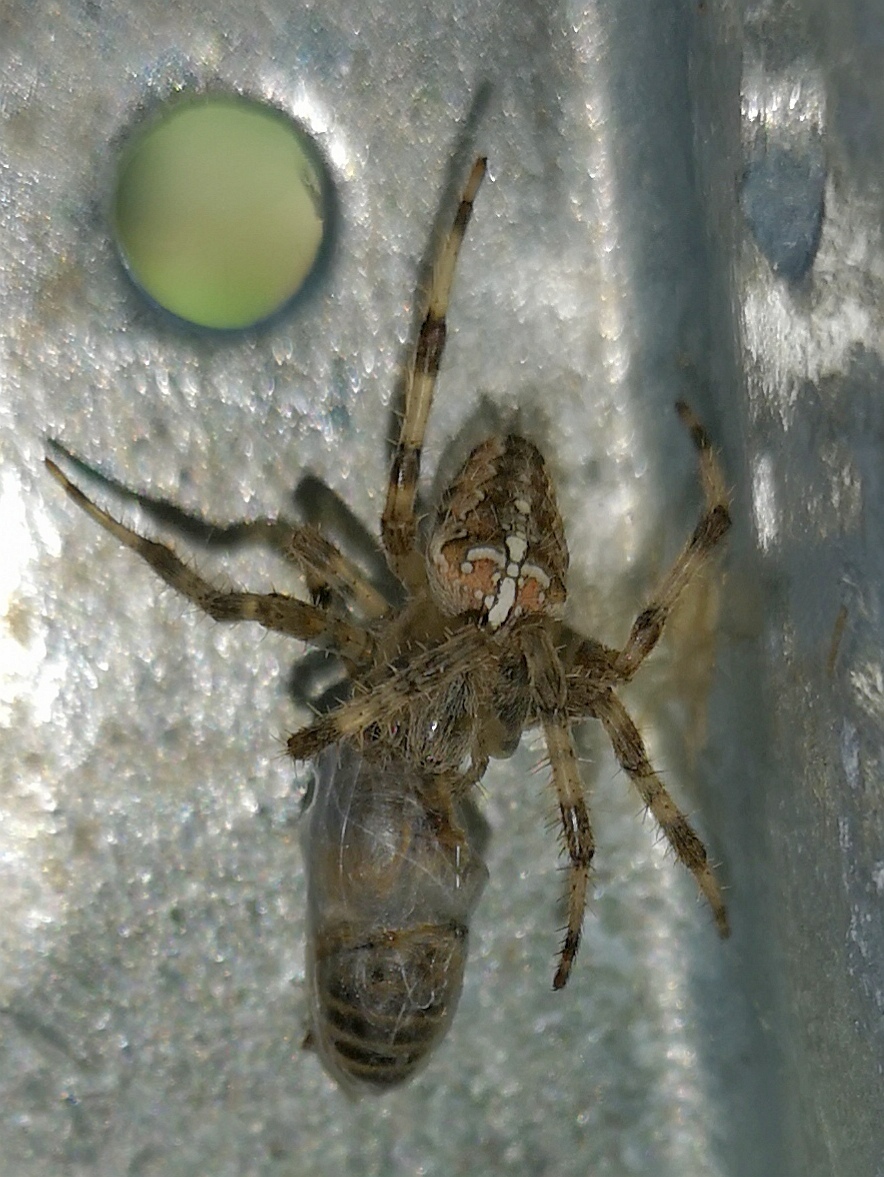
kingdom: Animalia
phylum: Arthropoda
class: Arachnida
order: Araneae
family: Araneidae
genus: Araneus
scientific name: Araneus diadematus
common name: Cross orbweaver
